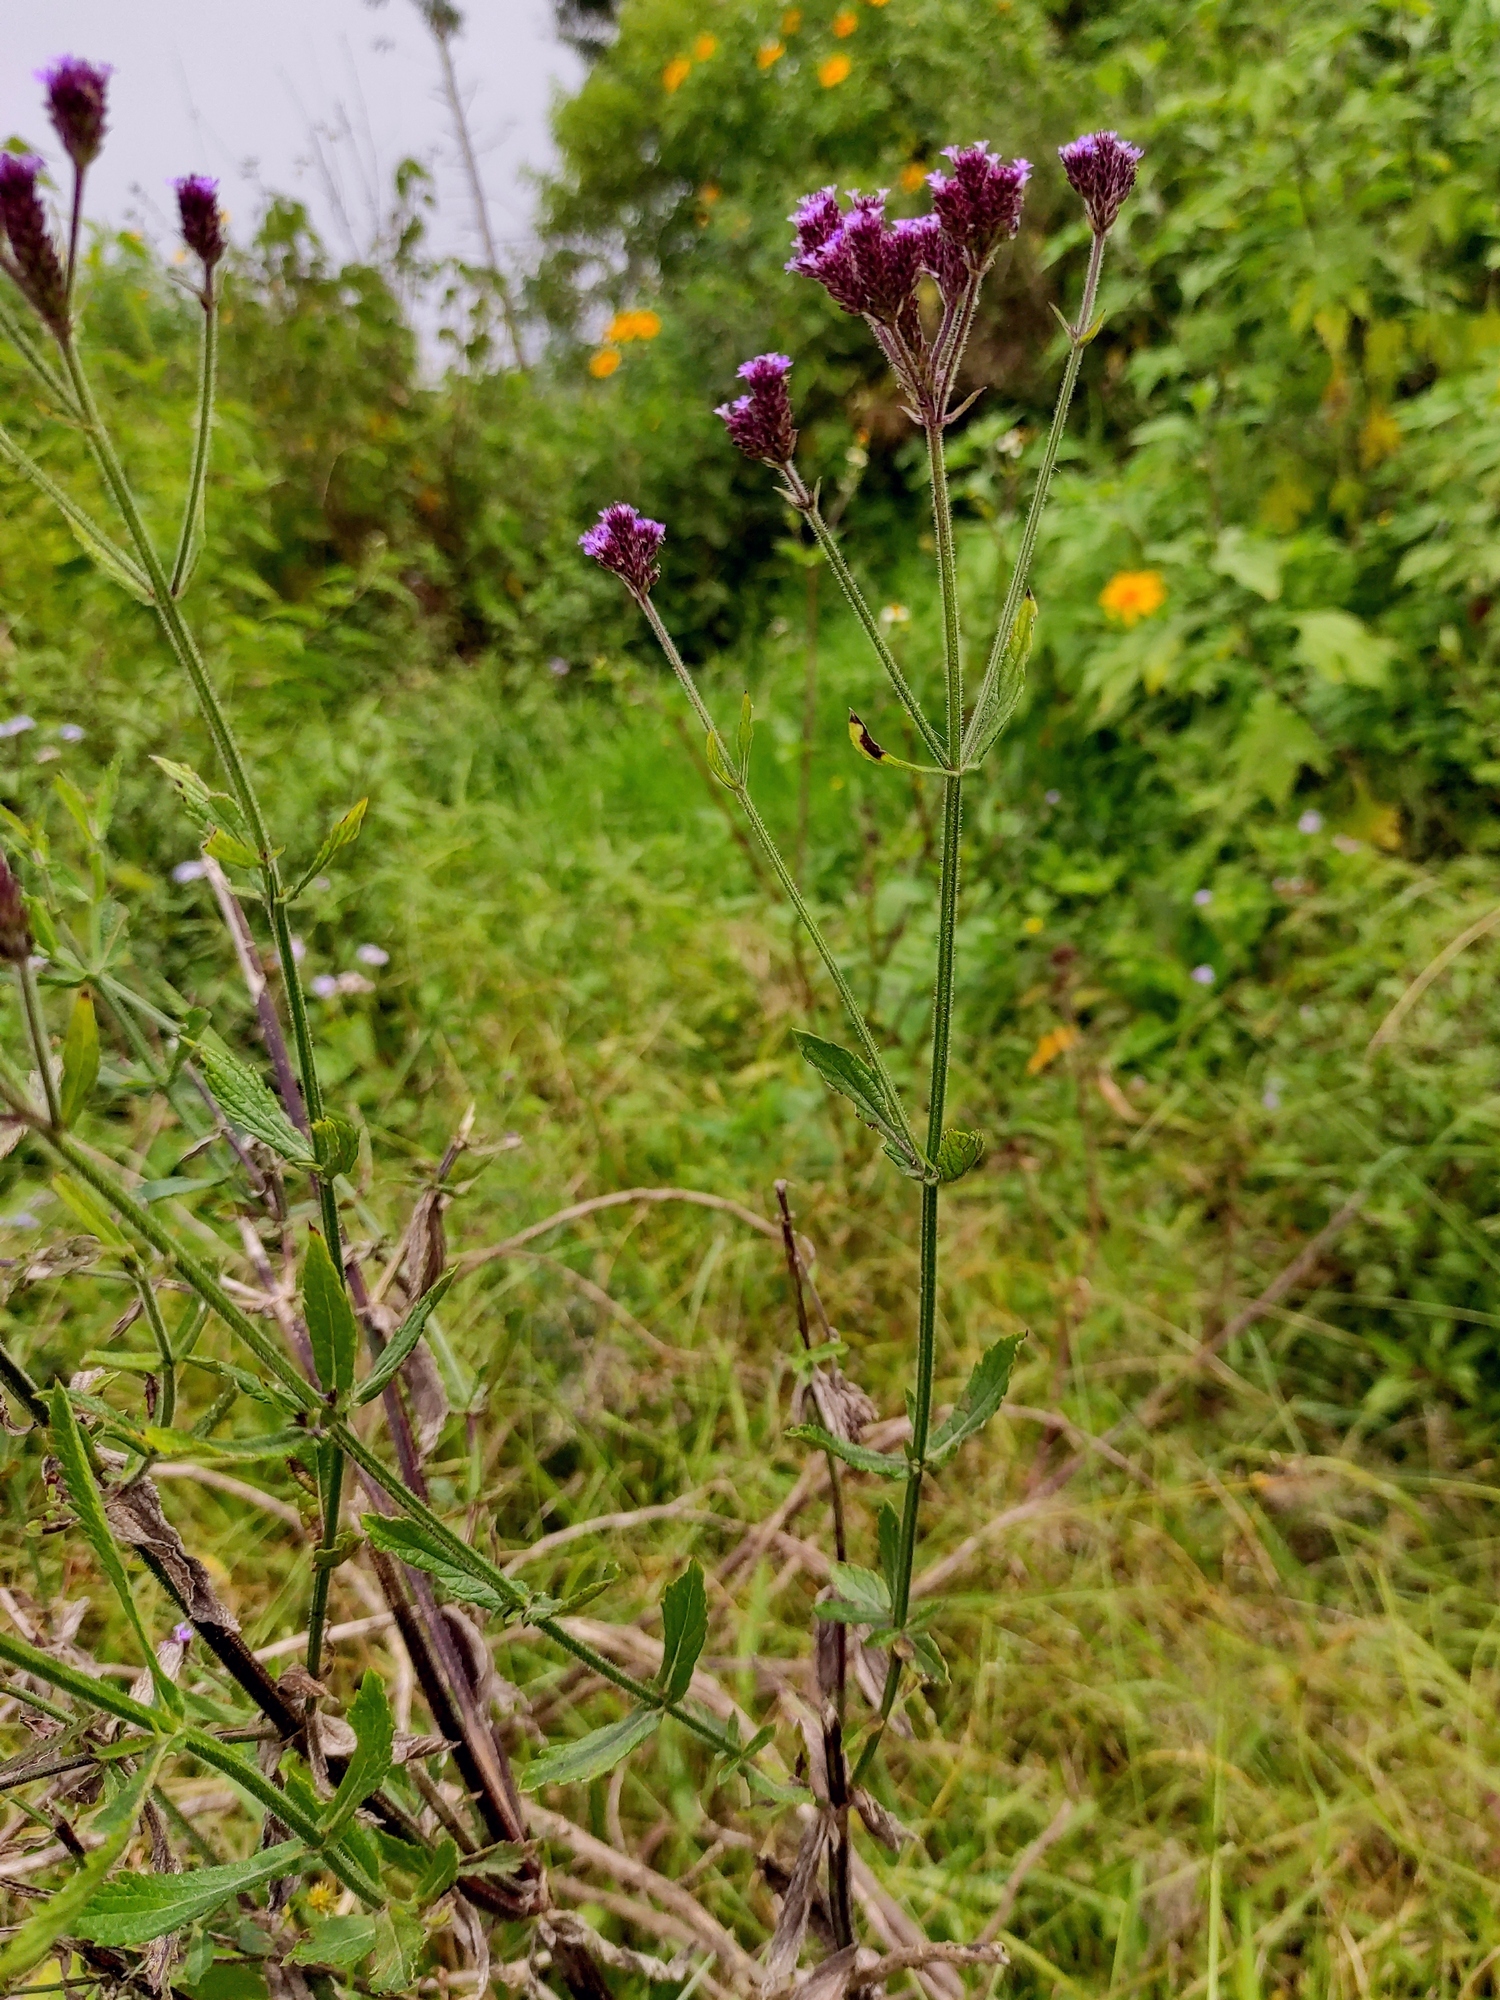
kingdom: Plantae
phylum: Tracheophyta
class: Magnoliopsida
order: Lamiales
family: Verbenaceae
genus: Verbena
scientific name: Verbena brasiliensis
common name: Brazilian vervain
